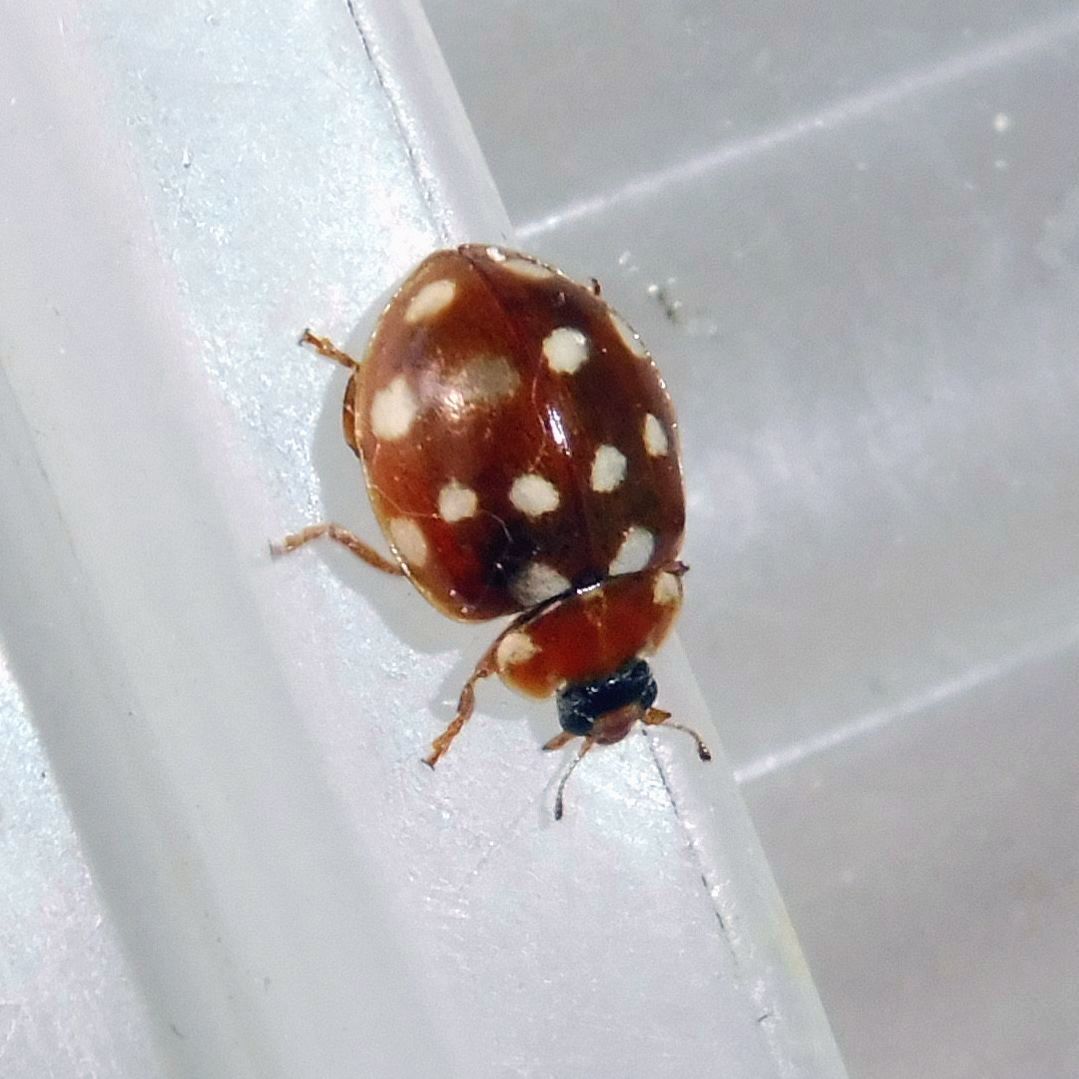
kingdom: Animalia
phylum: Arthropoda
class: Insecta
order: Coleoptera
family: Coccinellidae
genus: Calvia
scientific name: Calvia quatuordecimguttata
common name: Cream-spot ladybird
